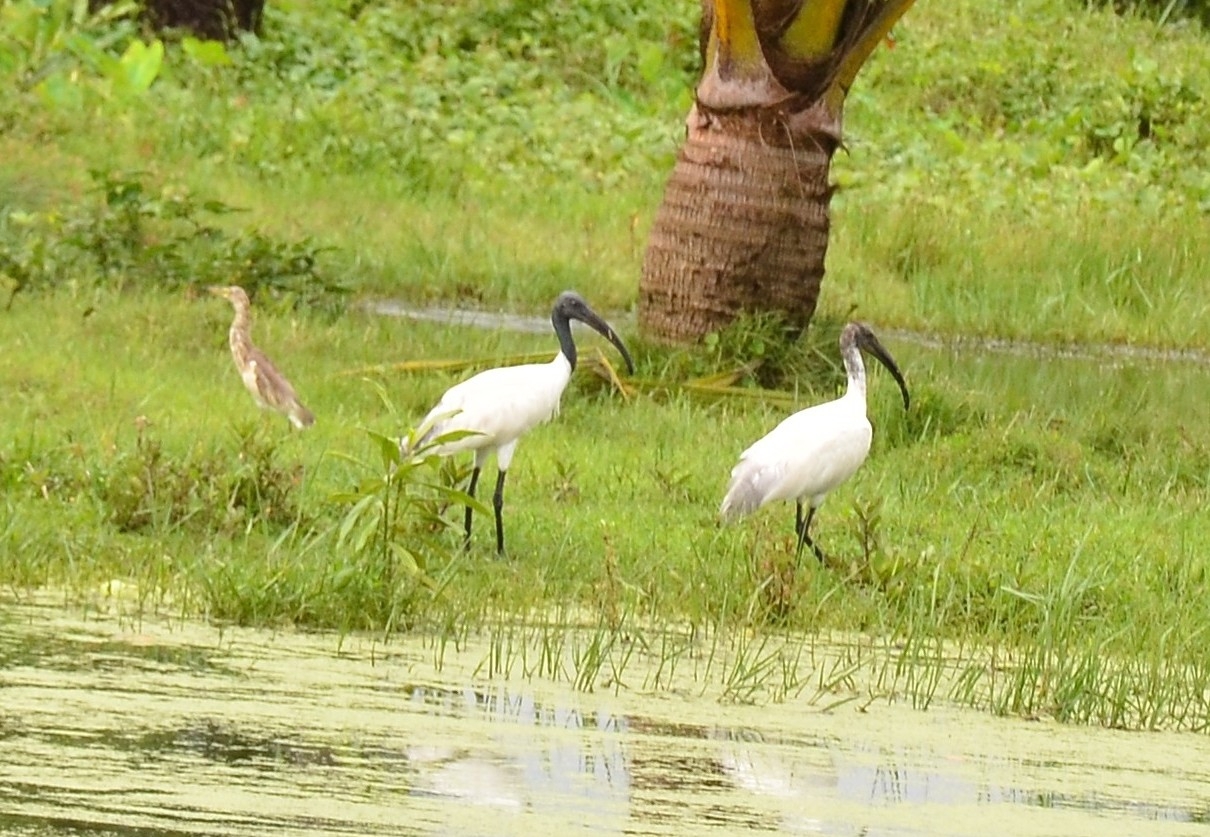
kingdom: Animalia
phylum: Chordata
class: Aves
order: Pelecaniformes
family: Threskiornithidae
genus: Threskiornis
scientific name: Threskiornis melanocephalus
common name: Black-headed ibis
